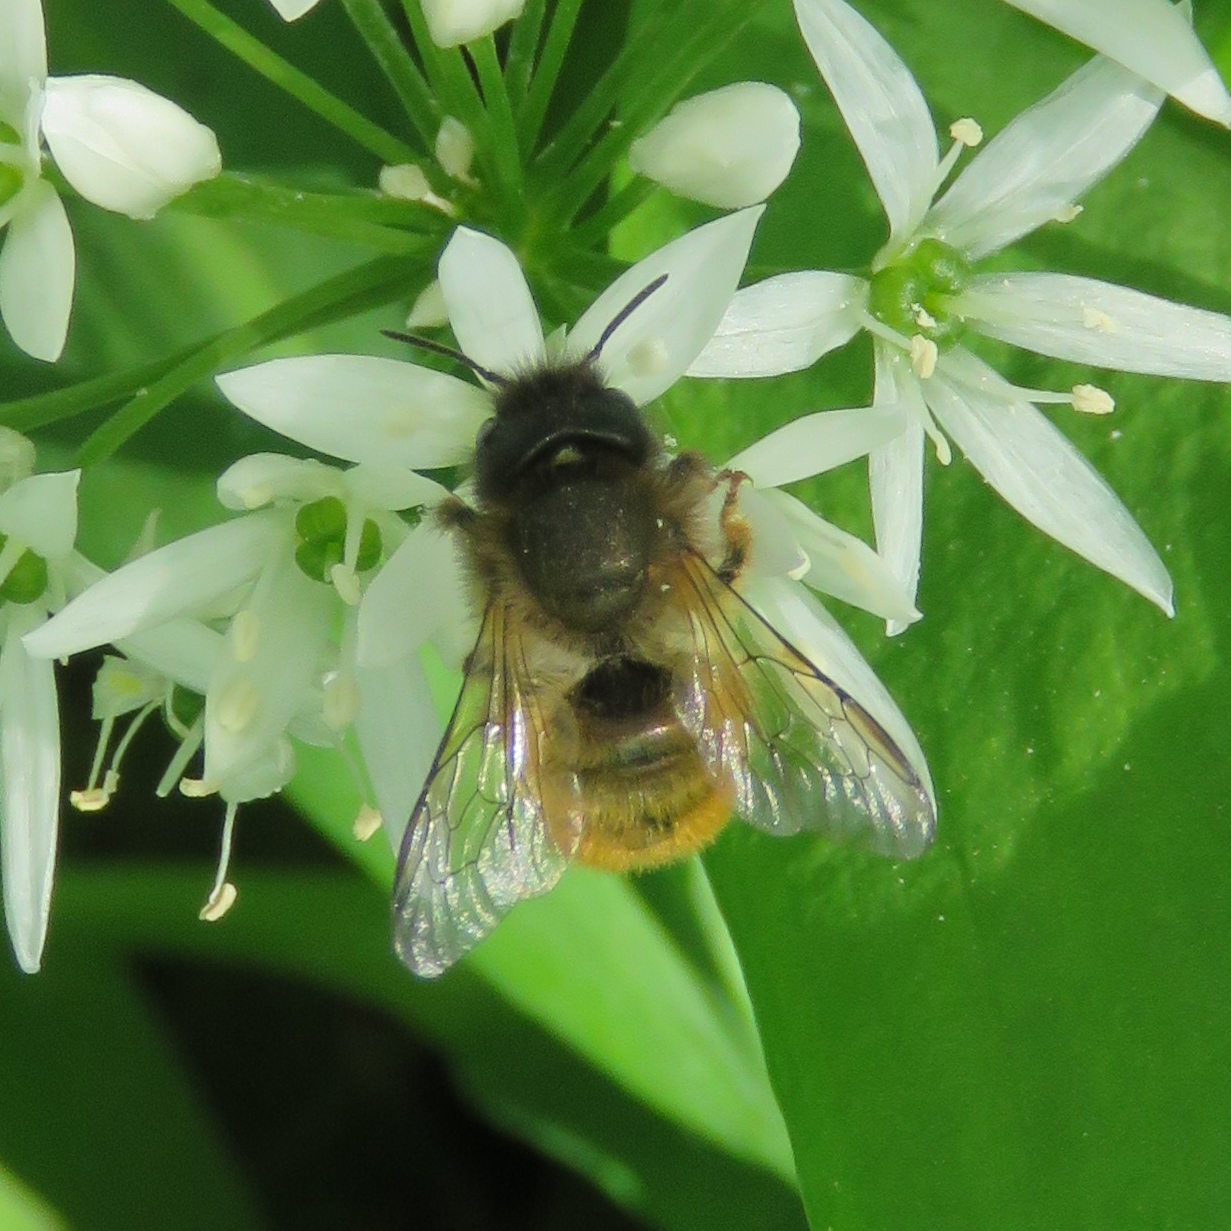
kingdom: Animalia
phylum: Arthropoda
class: Insecta
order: Hymenoptera
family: Megachilidae
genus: Osmia
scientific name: Osmia bicornis
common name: Red mason bee
